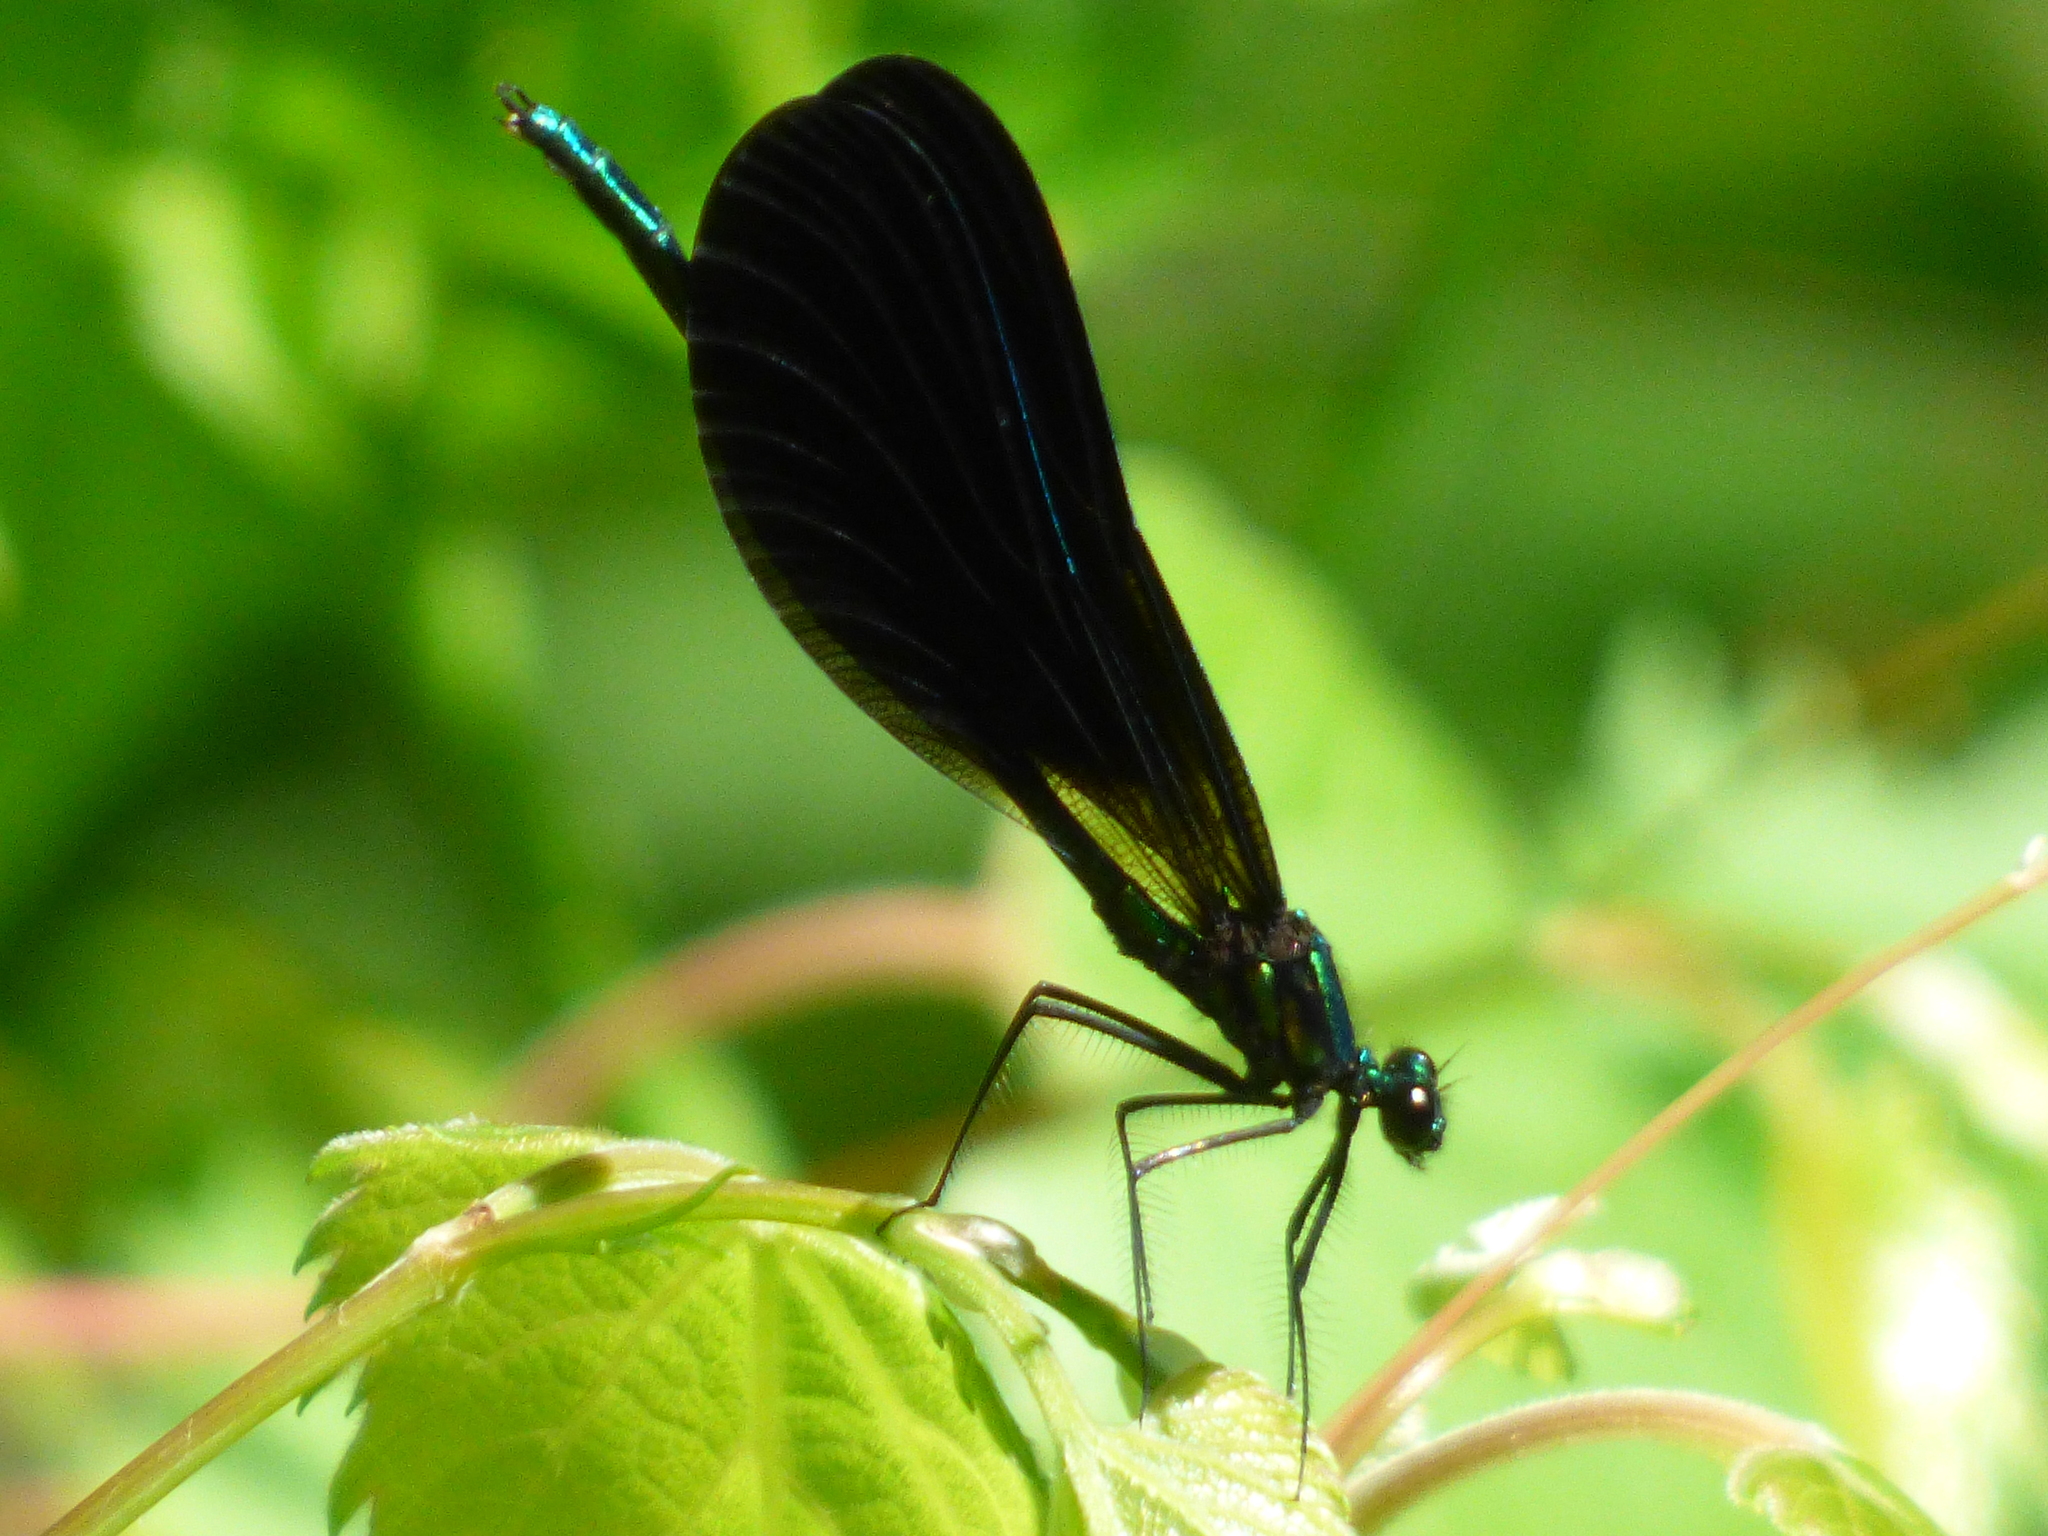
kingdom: Animalia
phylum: Arthropoda
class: Insecta
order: Odonata
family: Calopterygidae
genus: Calopteryx
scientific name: Calopteryx maculata
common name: Ebony jewelwing
